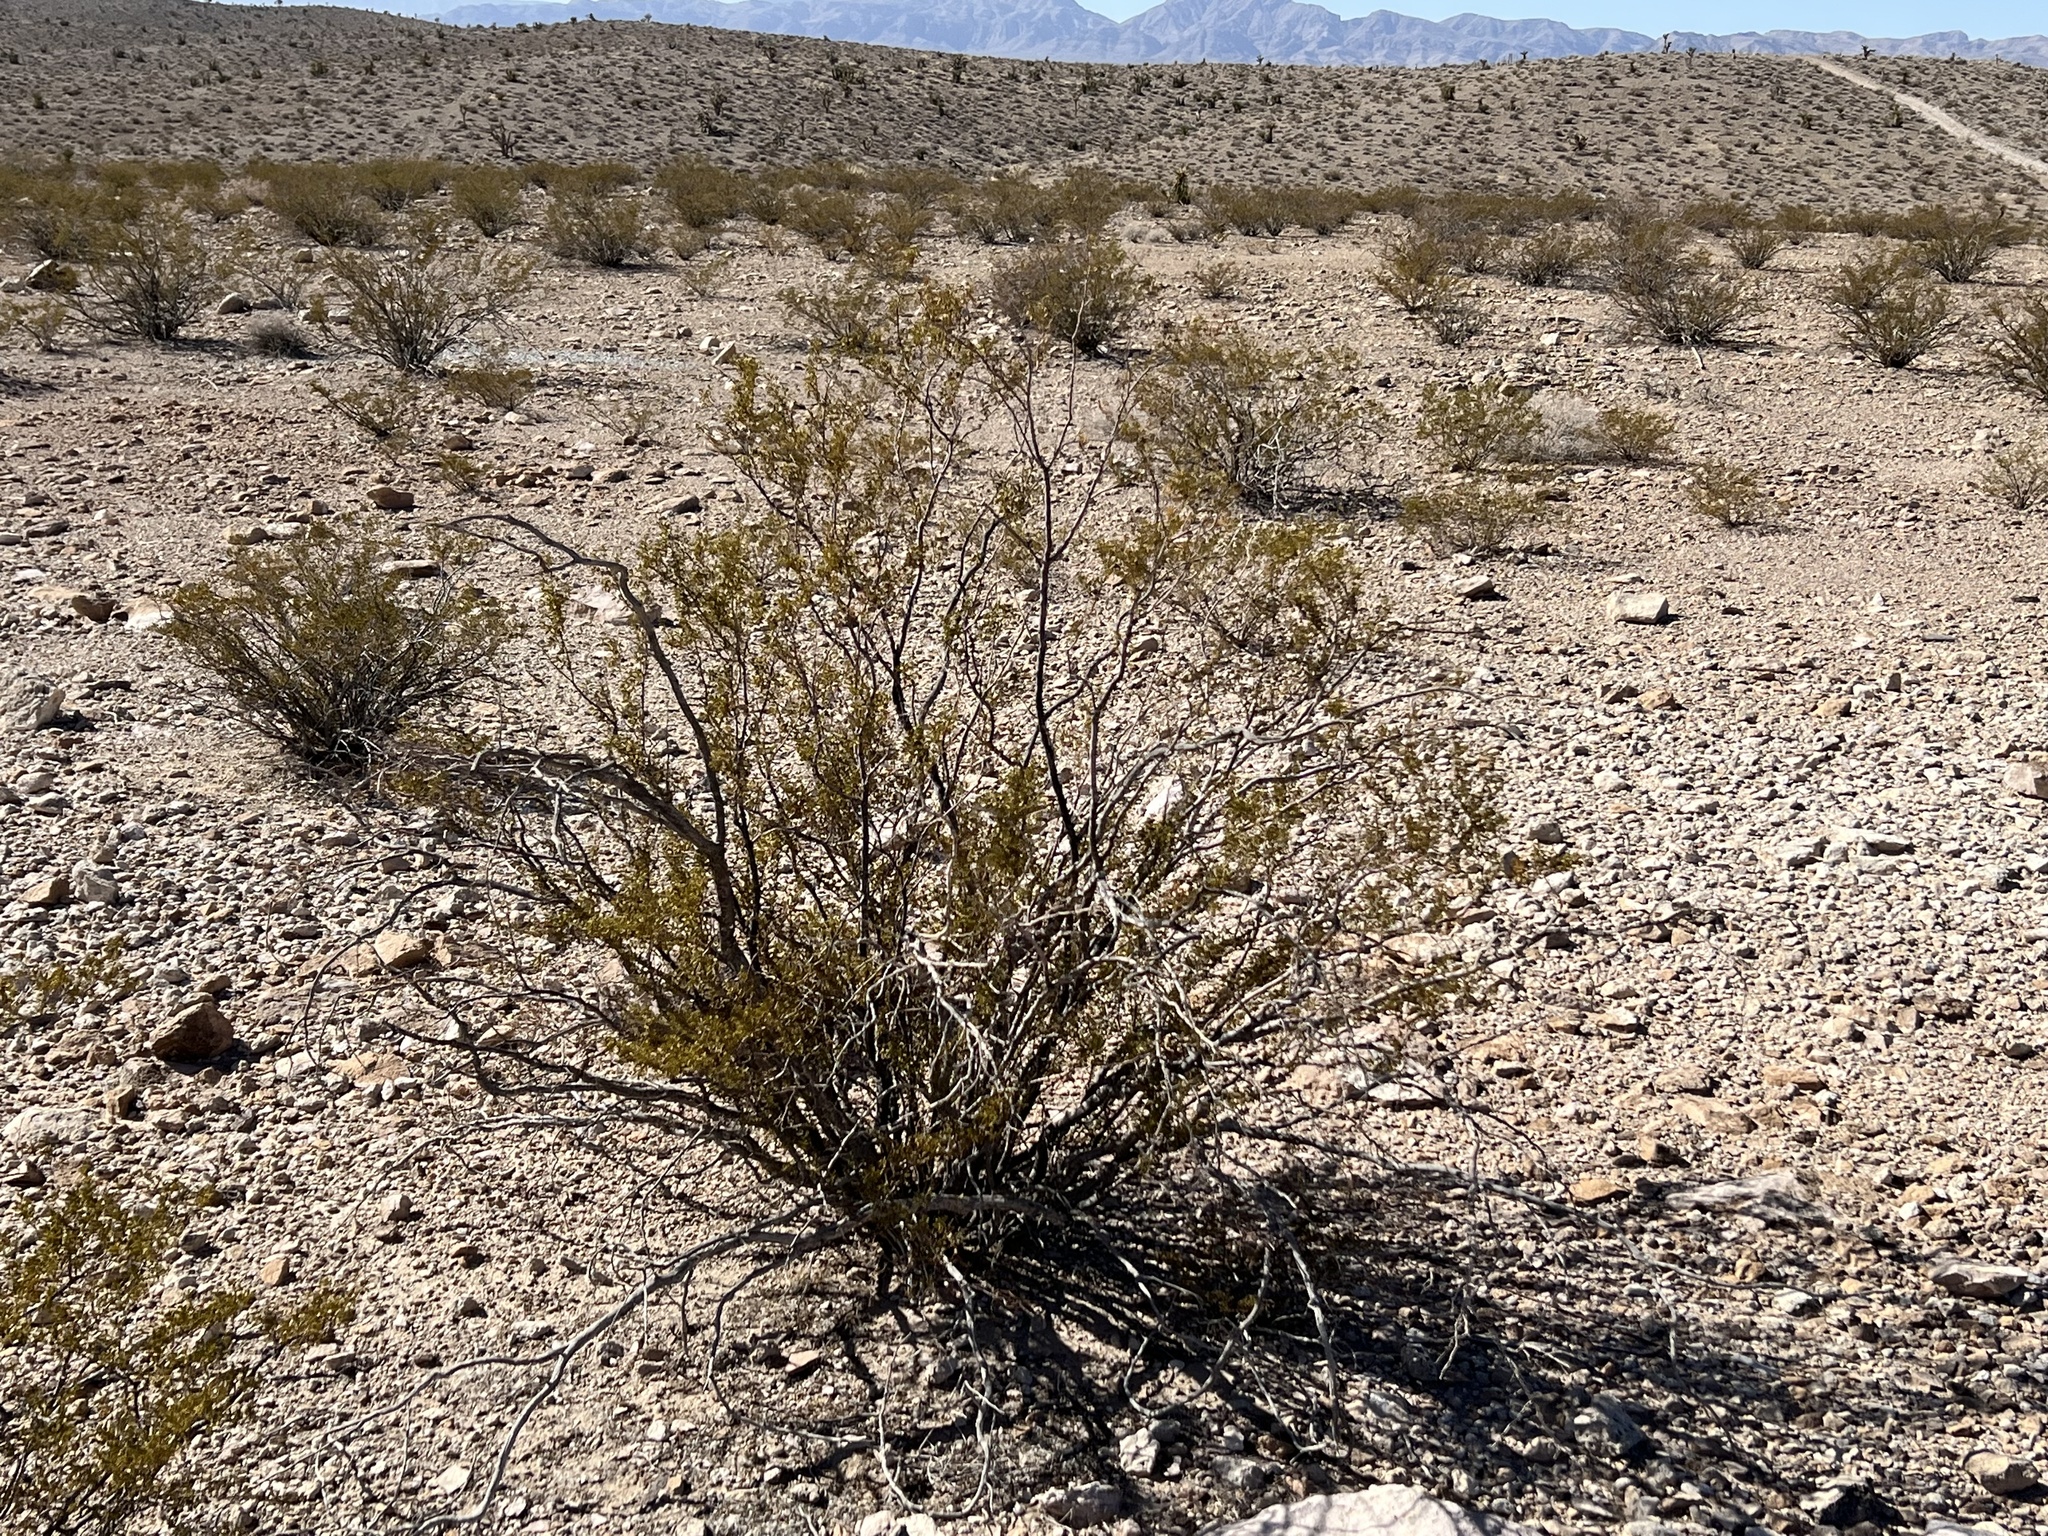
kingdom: Plantae
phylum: Tracheophyta
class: Magnoliopsida
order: Zygophyllales
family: Zygophyllaceae
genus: Larrea
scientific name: Larrea tridentata
